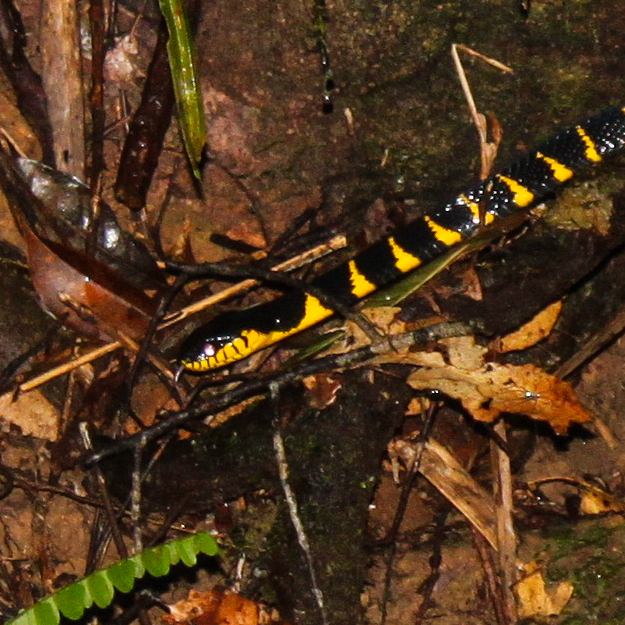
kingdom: Animalia
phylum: Chordata
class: Squamata
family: Colubridae
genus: Boiga
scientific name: Boiga melanota
